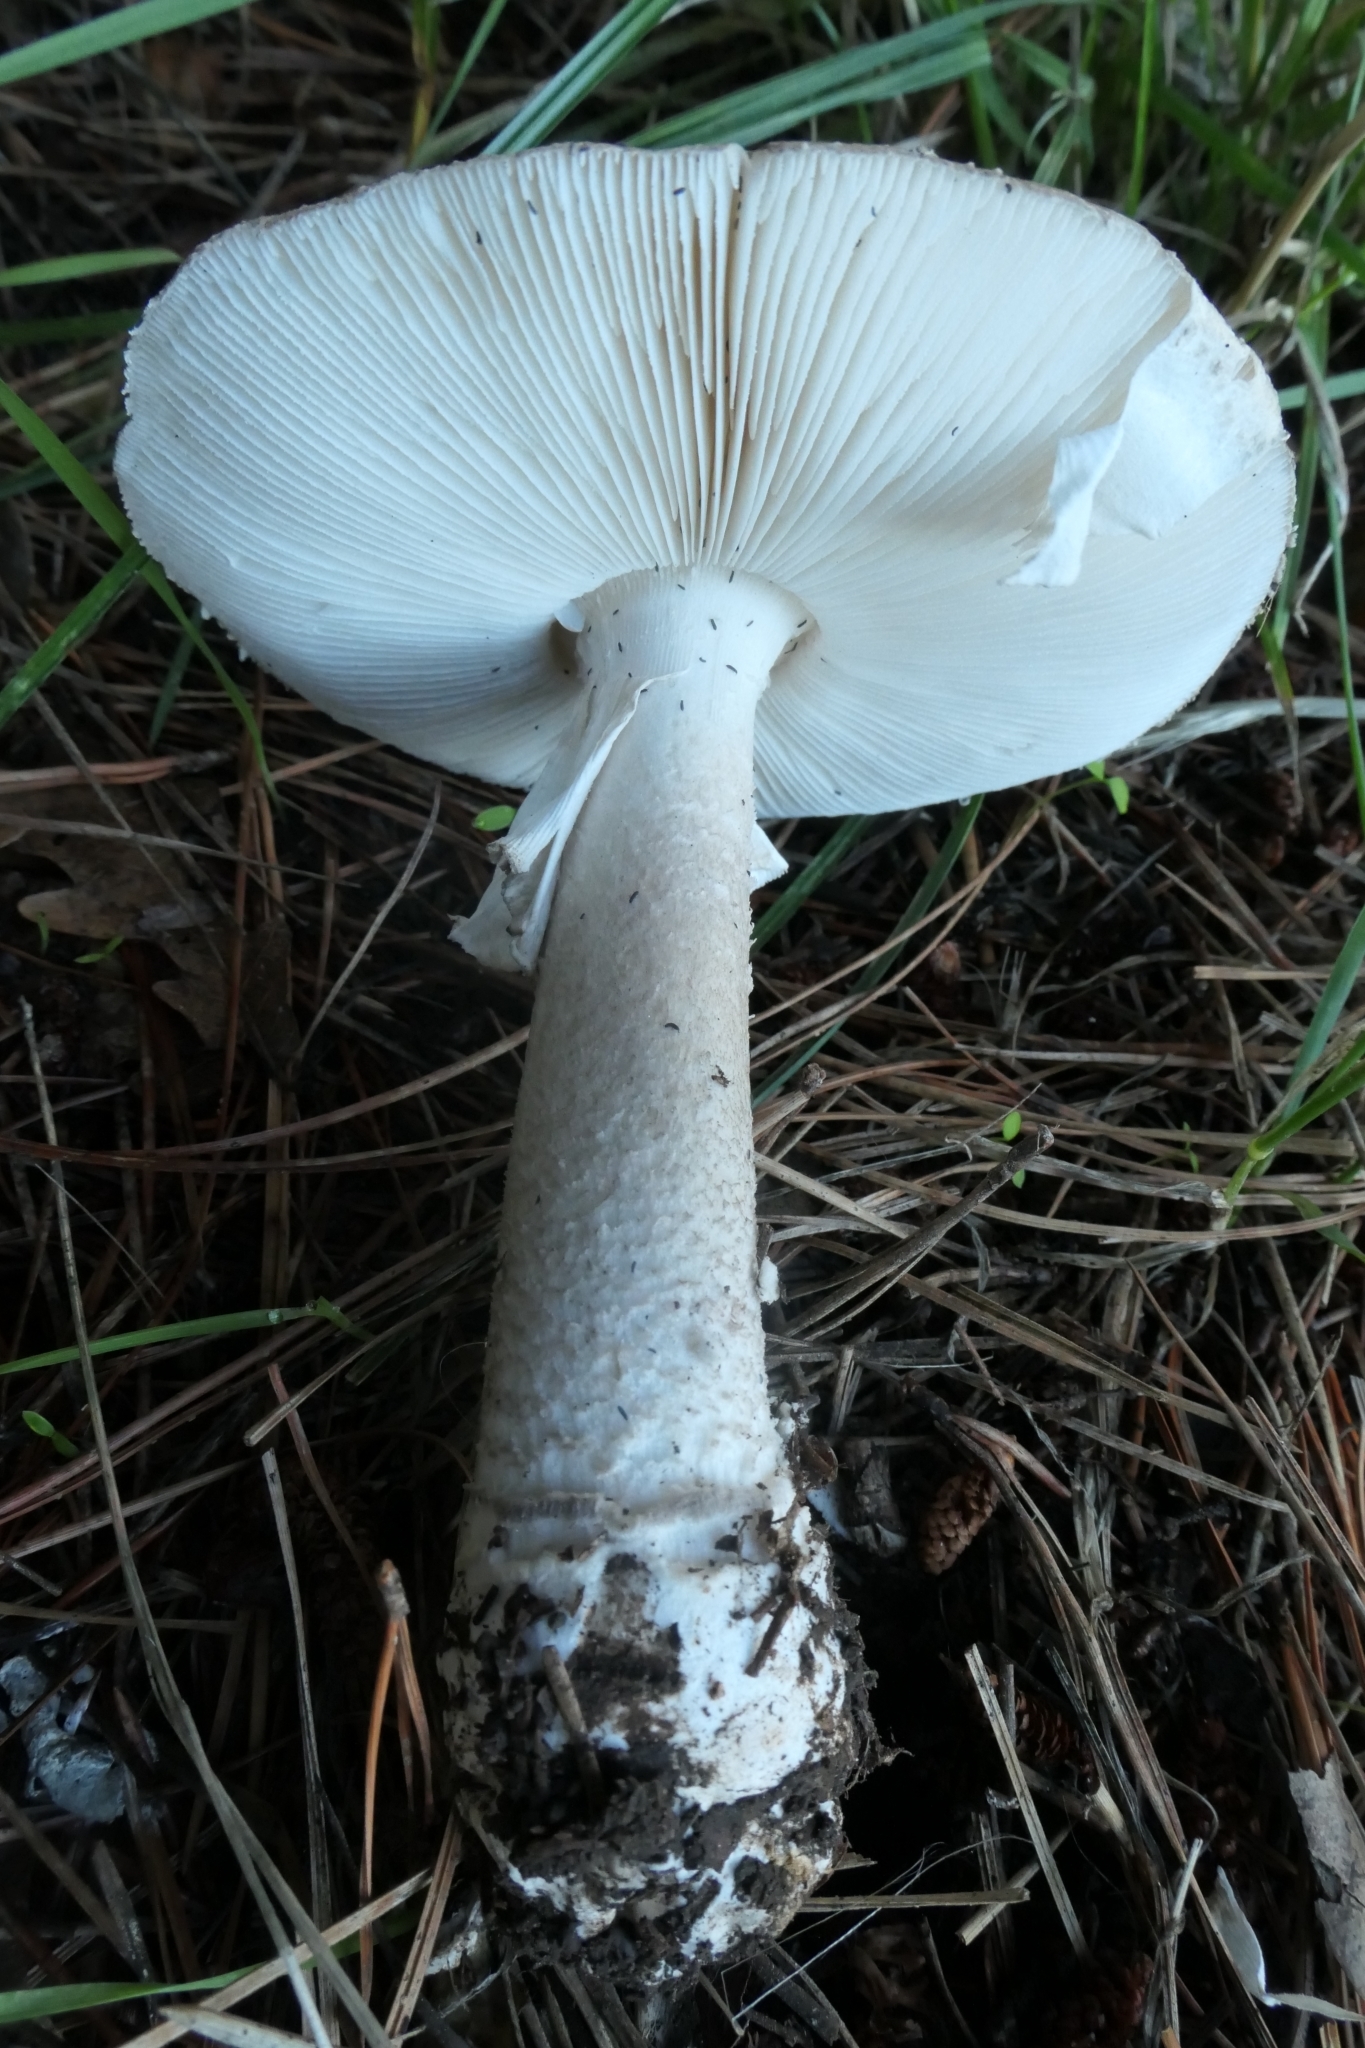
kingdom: Fungi
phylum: Basidiomycota
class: Agaricomycetes
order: Agaricales
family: Amanitaceae
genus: Amanita
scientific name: Amanita excelsa
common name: European false blusher
